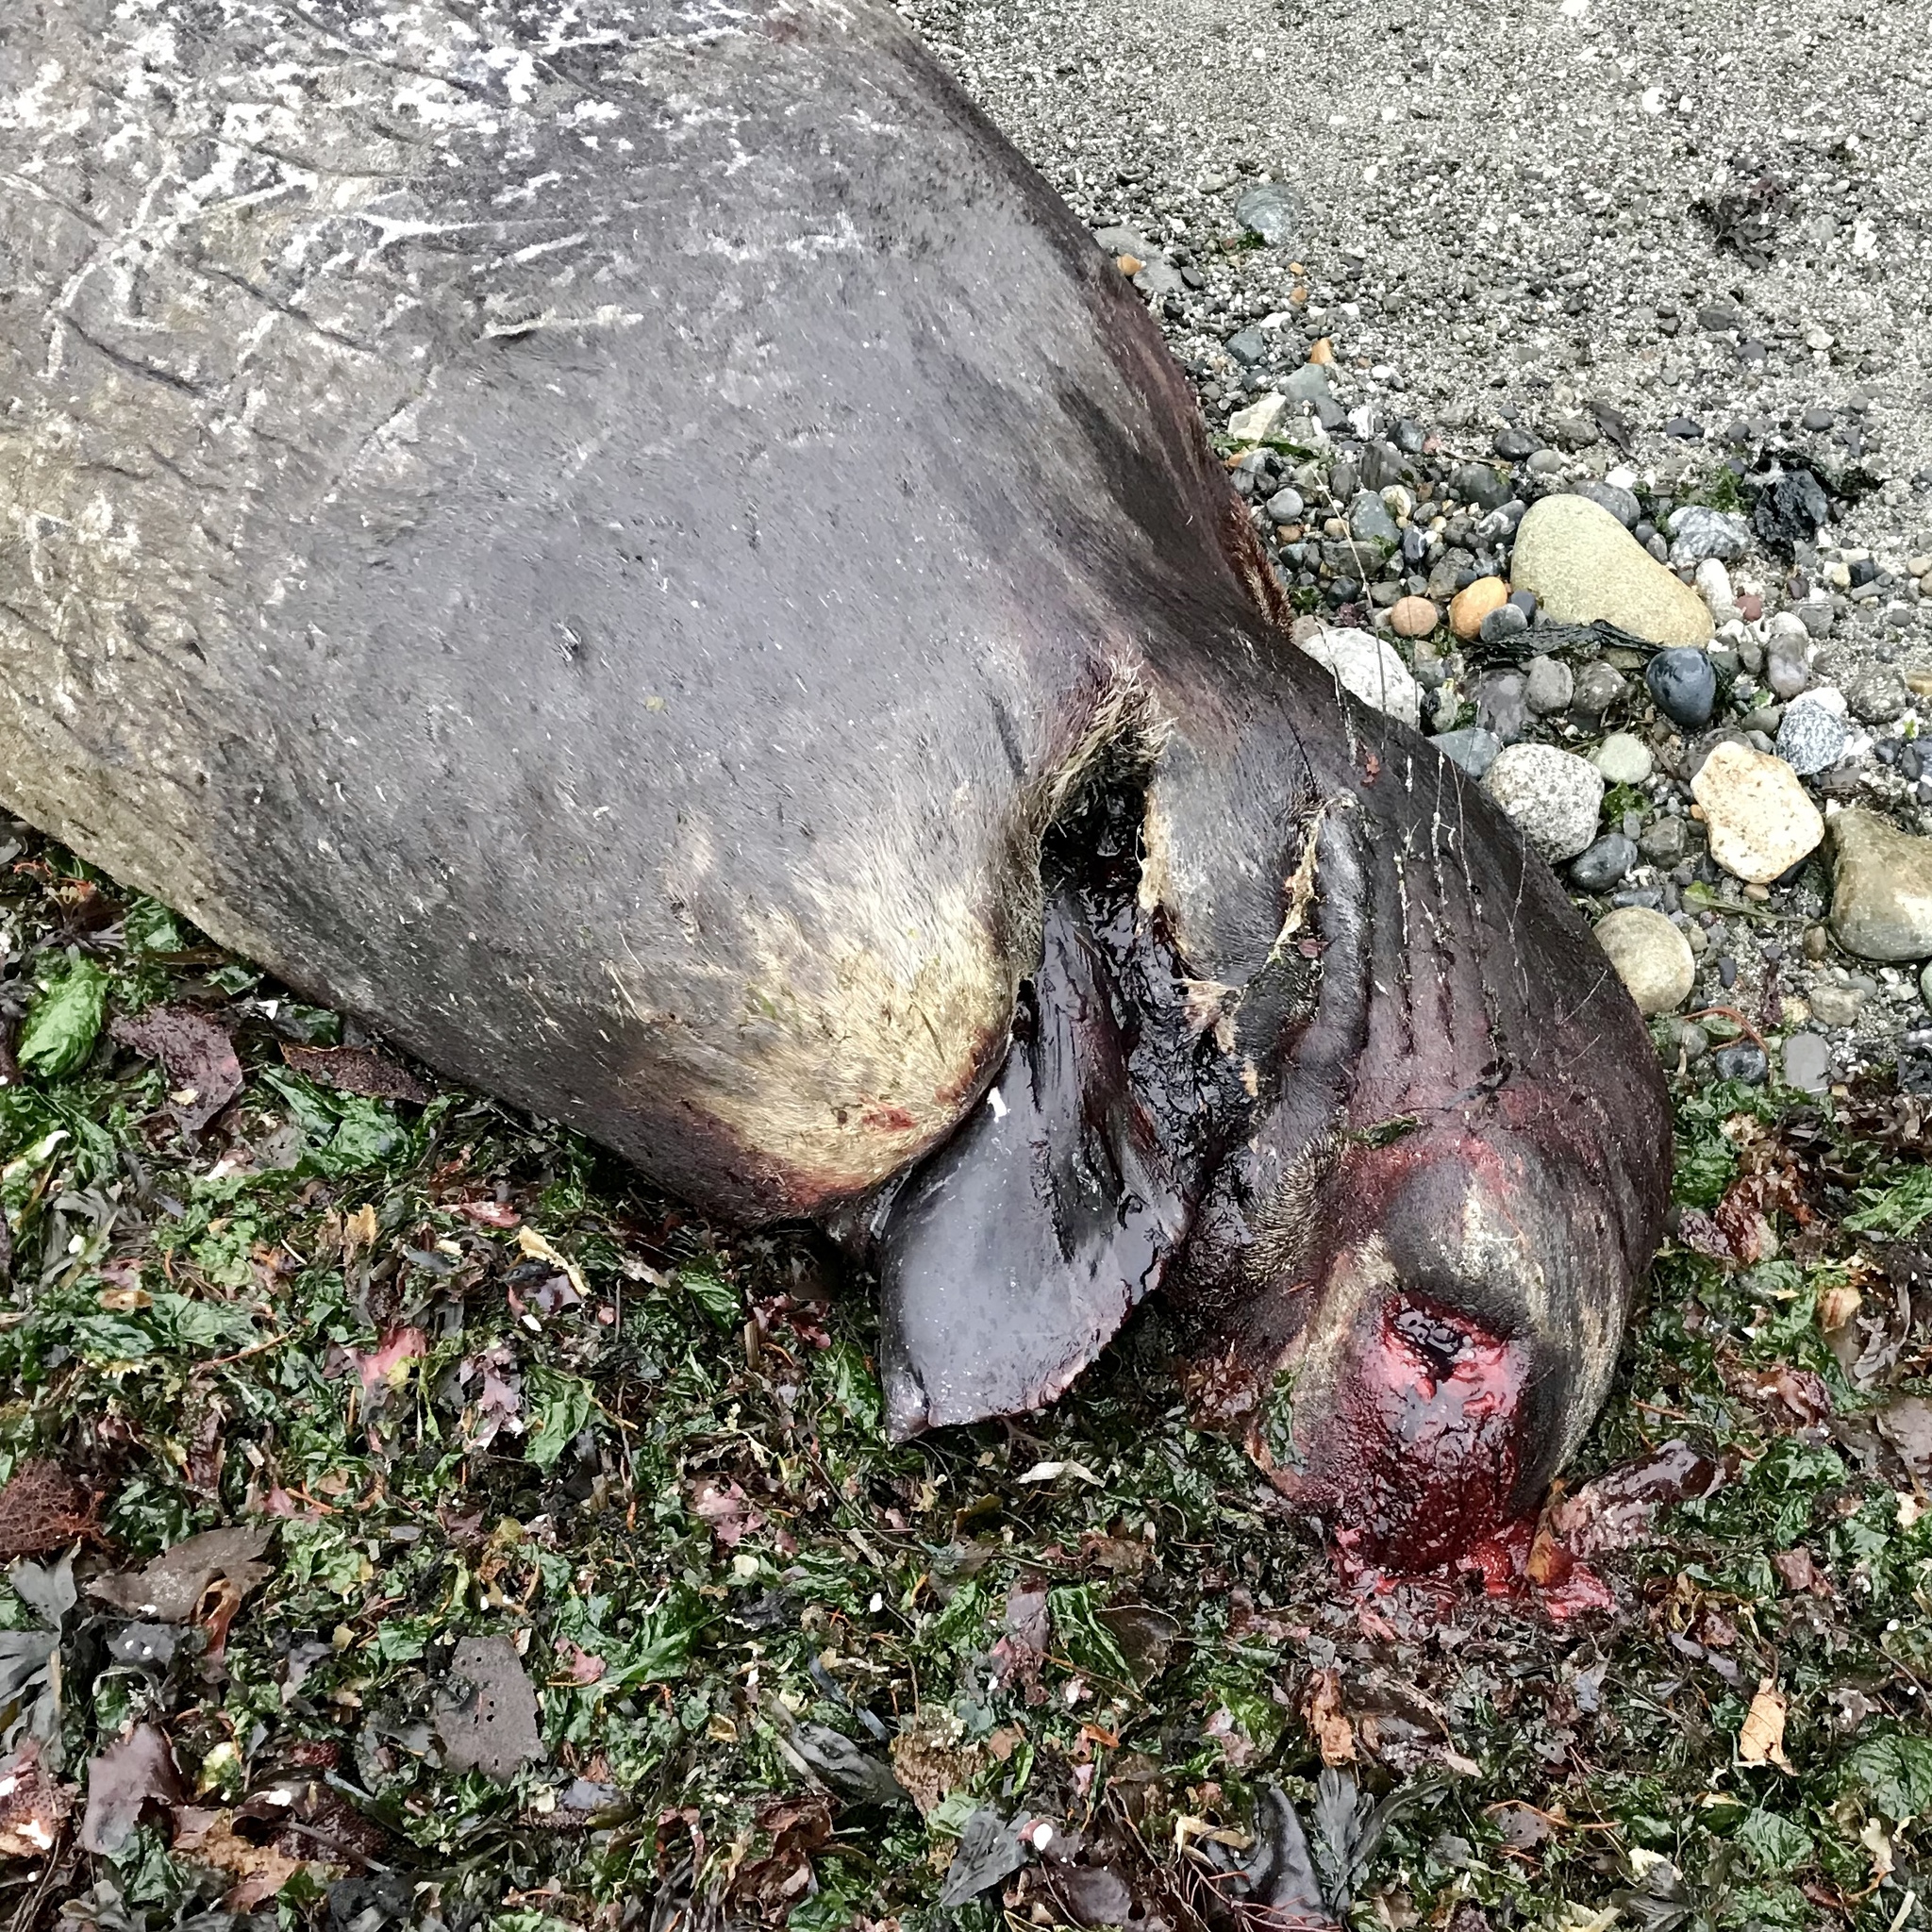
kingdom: Animalia
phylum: Chordata
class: Mammalia
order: Carnivora
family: Phocidae
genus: Mirounga
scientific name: Mirounga angustirostris
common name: Northern elephant seal
